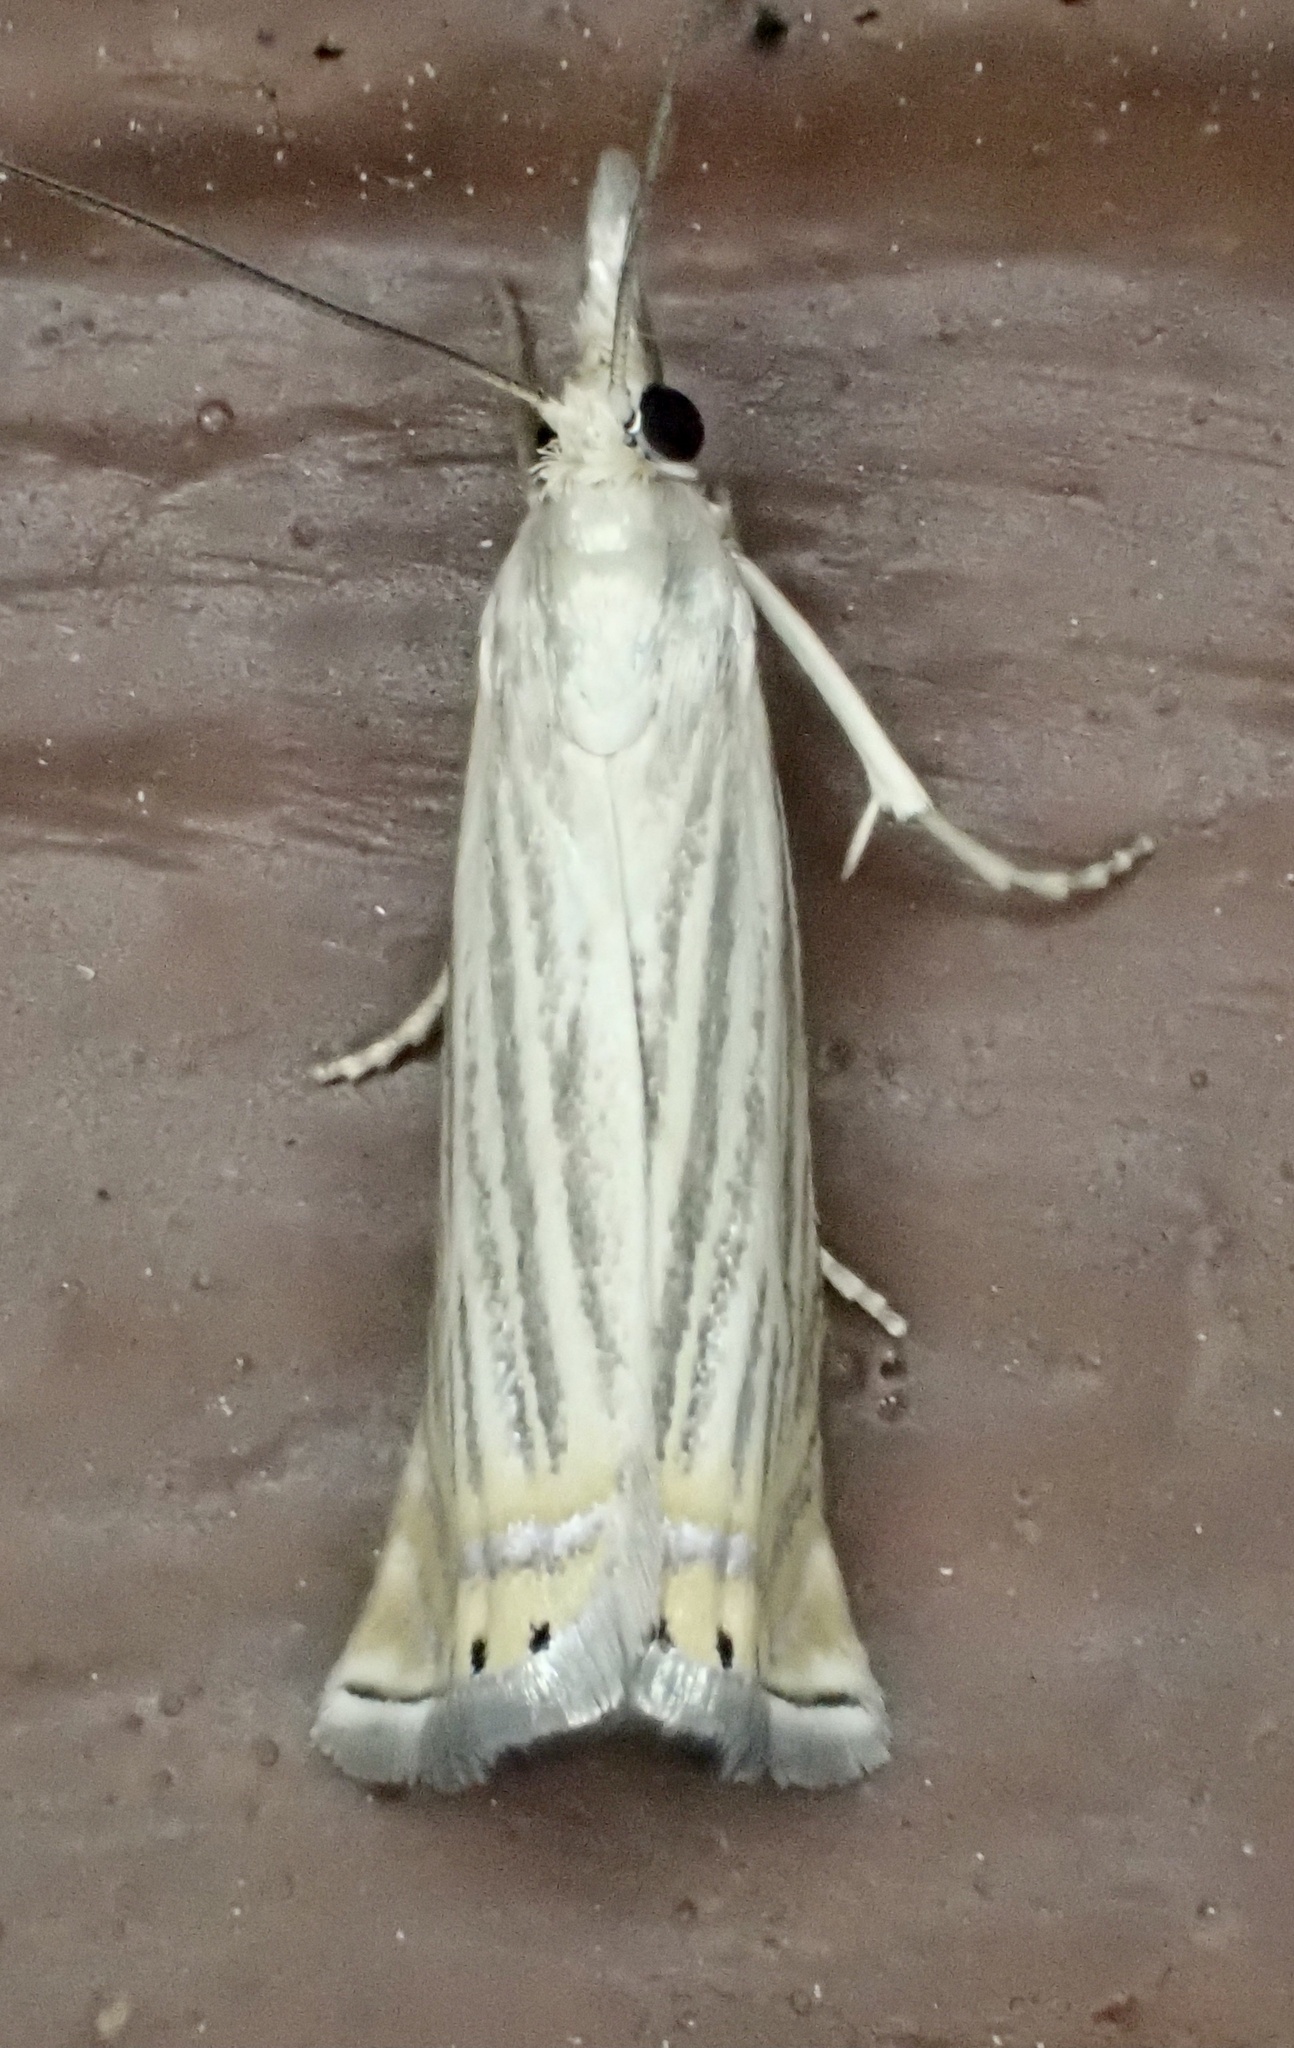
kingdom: Animalia
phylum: Arthropoda
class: Insecta
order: Lepidoptera
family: Crambidae
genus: Chrysoteuchia
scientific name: Chrysoteuchia topiarius
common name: Topiary grass-veneer
